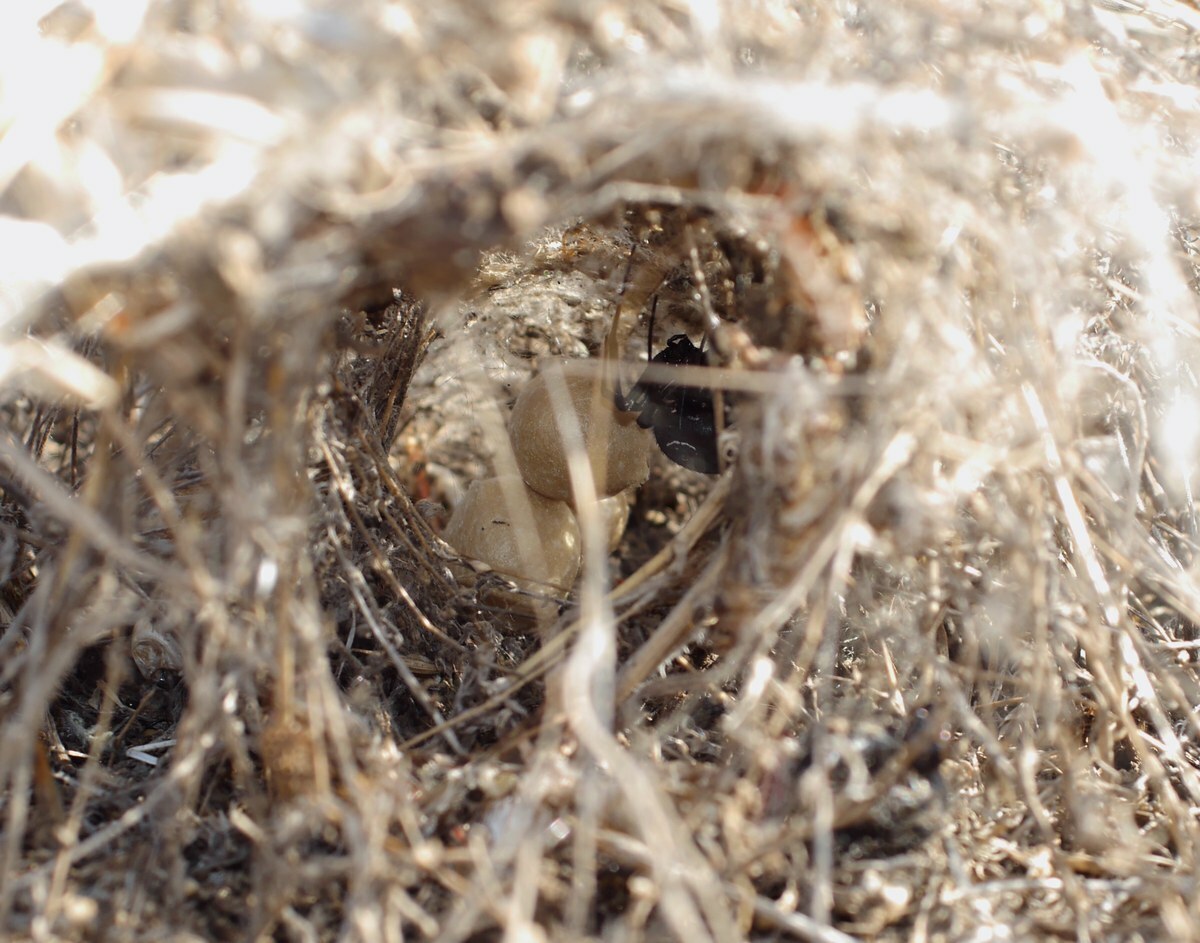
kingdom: Animalia
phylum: Arthropoda
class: Arachnida
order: Araneae
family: Theridiidae
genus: Latrodectus
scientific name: Latrodectus tredecimguttatus
